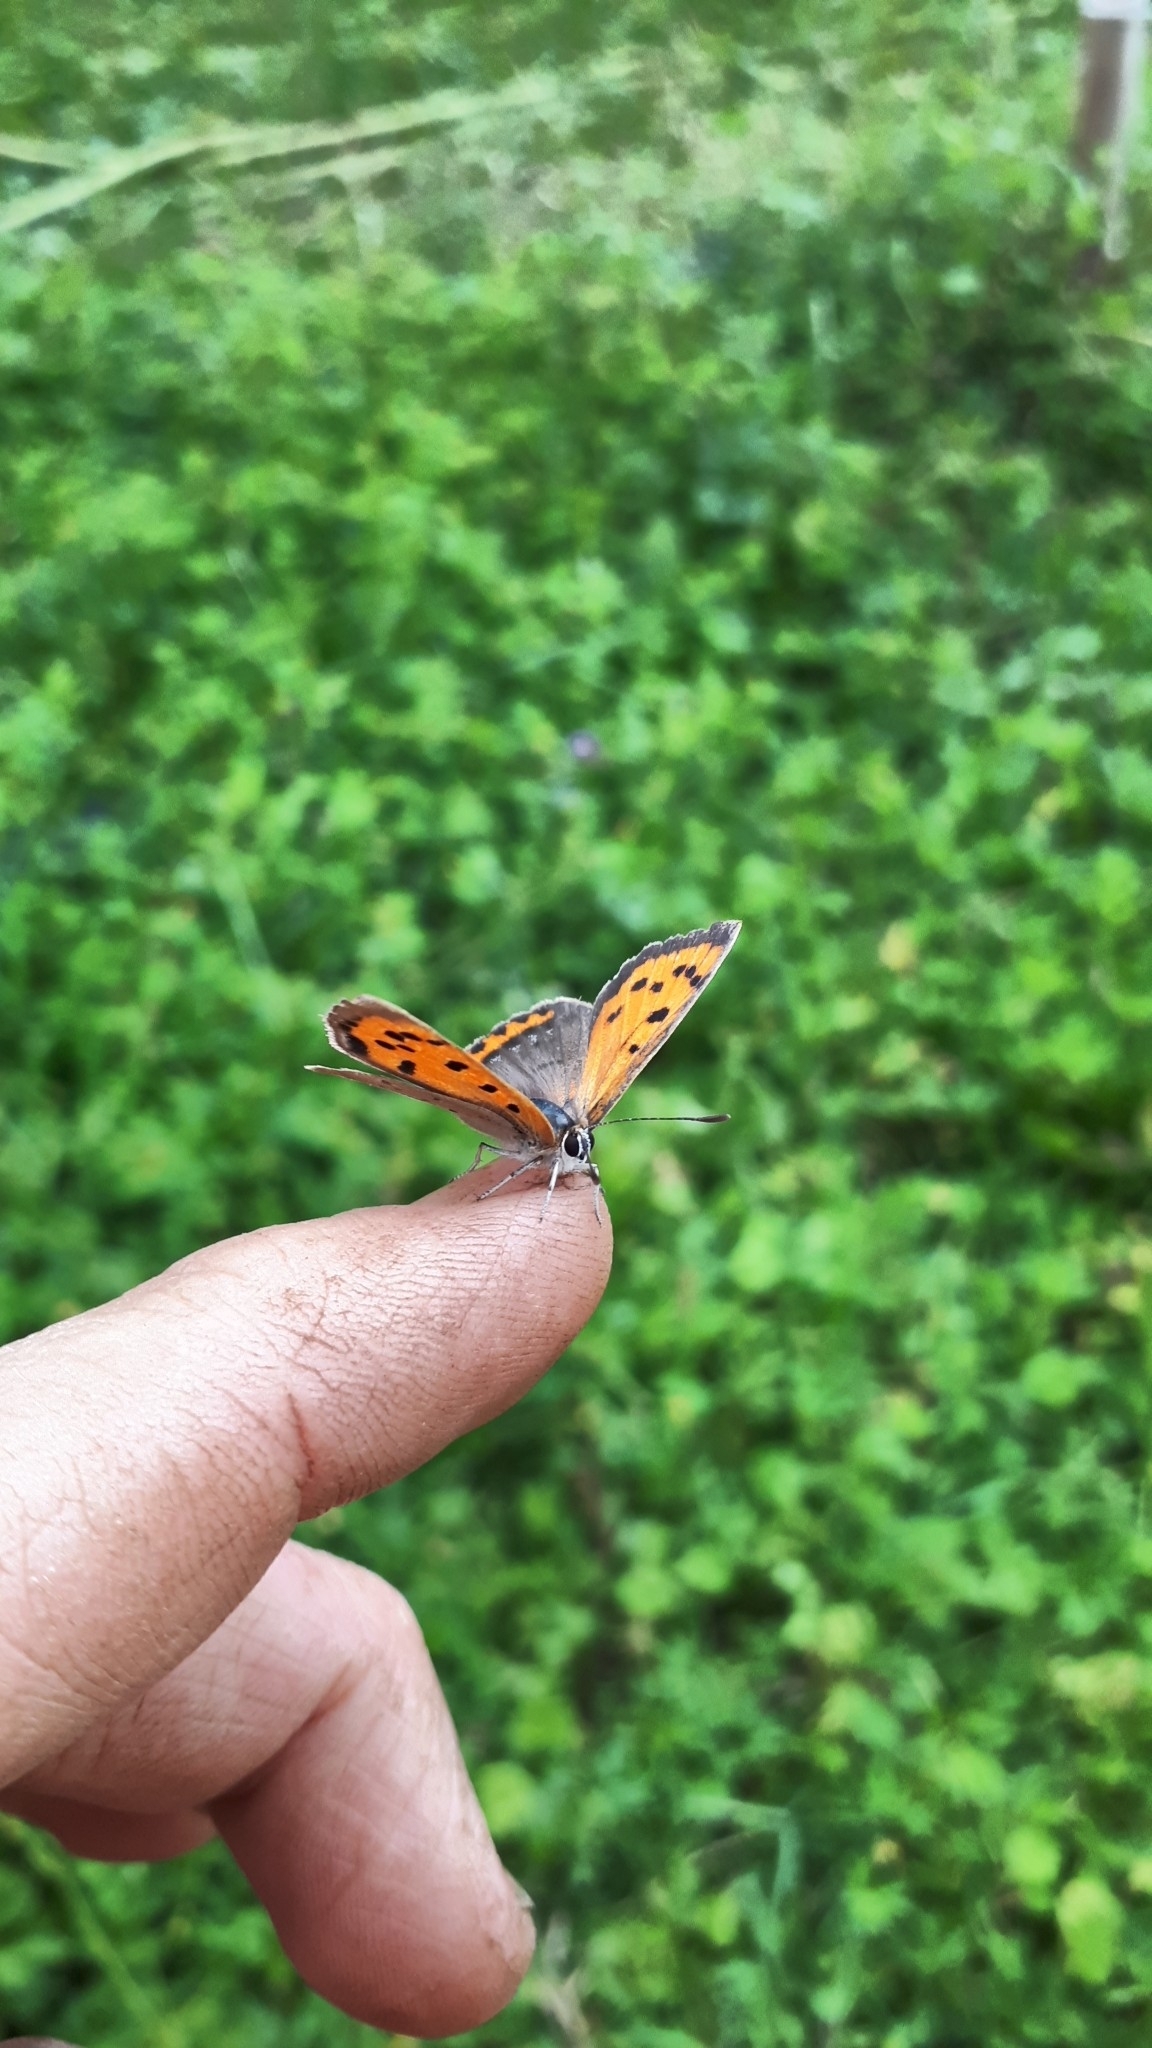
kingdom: Animalia
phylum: Arthropoda
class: Insecta
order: Lepidoptera
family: Lycaenidae
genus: Lycaena
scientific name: Lycaena phlaeas
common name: Small copper
